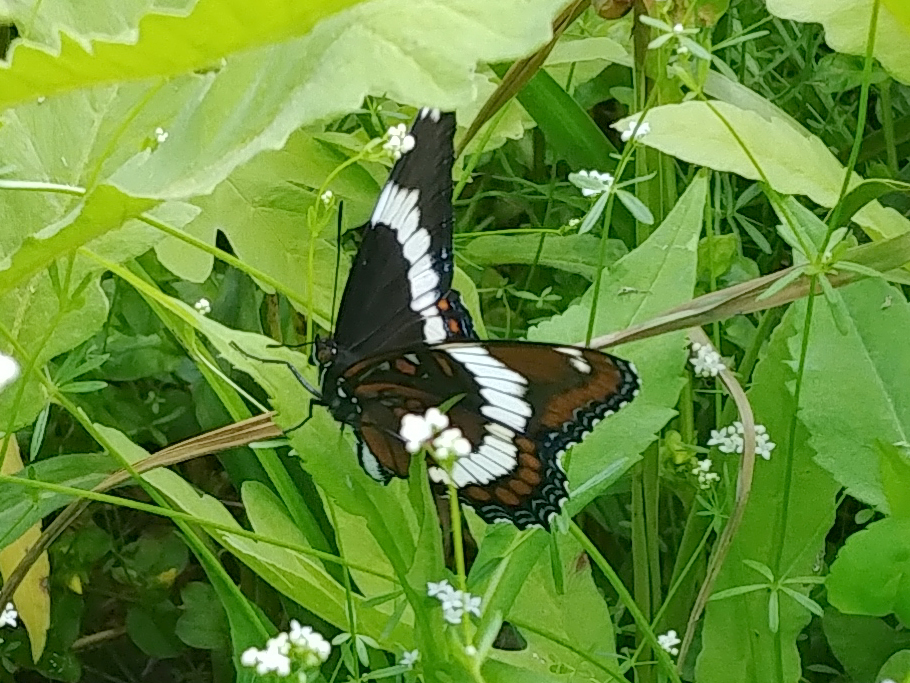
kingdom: Animalia
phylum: Arthropoda
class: Insecta
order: Lepidoptera
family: Nymphalidae
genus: Limenitis
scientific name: Limenitis arthemis
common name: Red-spotted admiral
